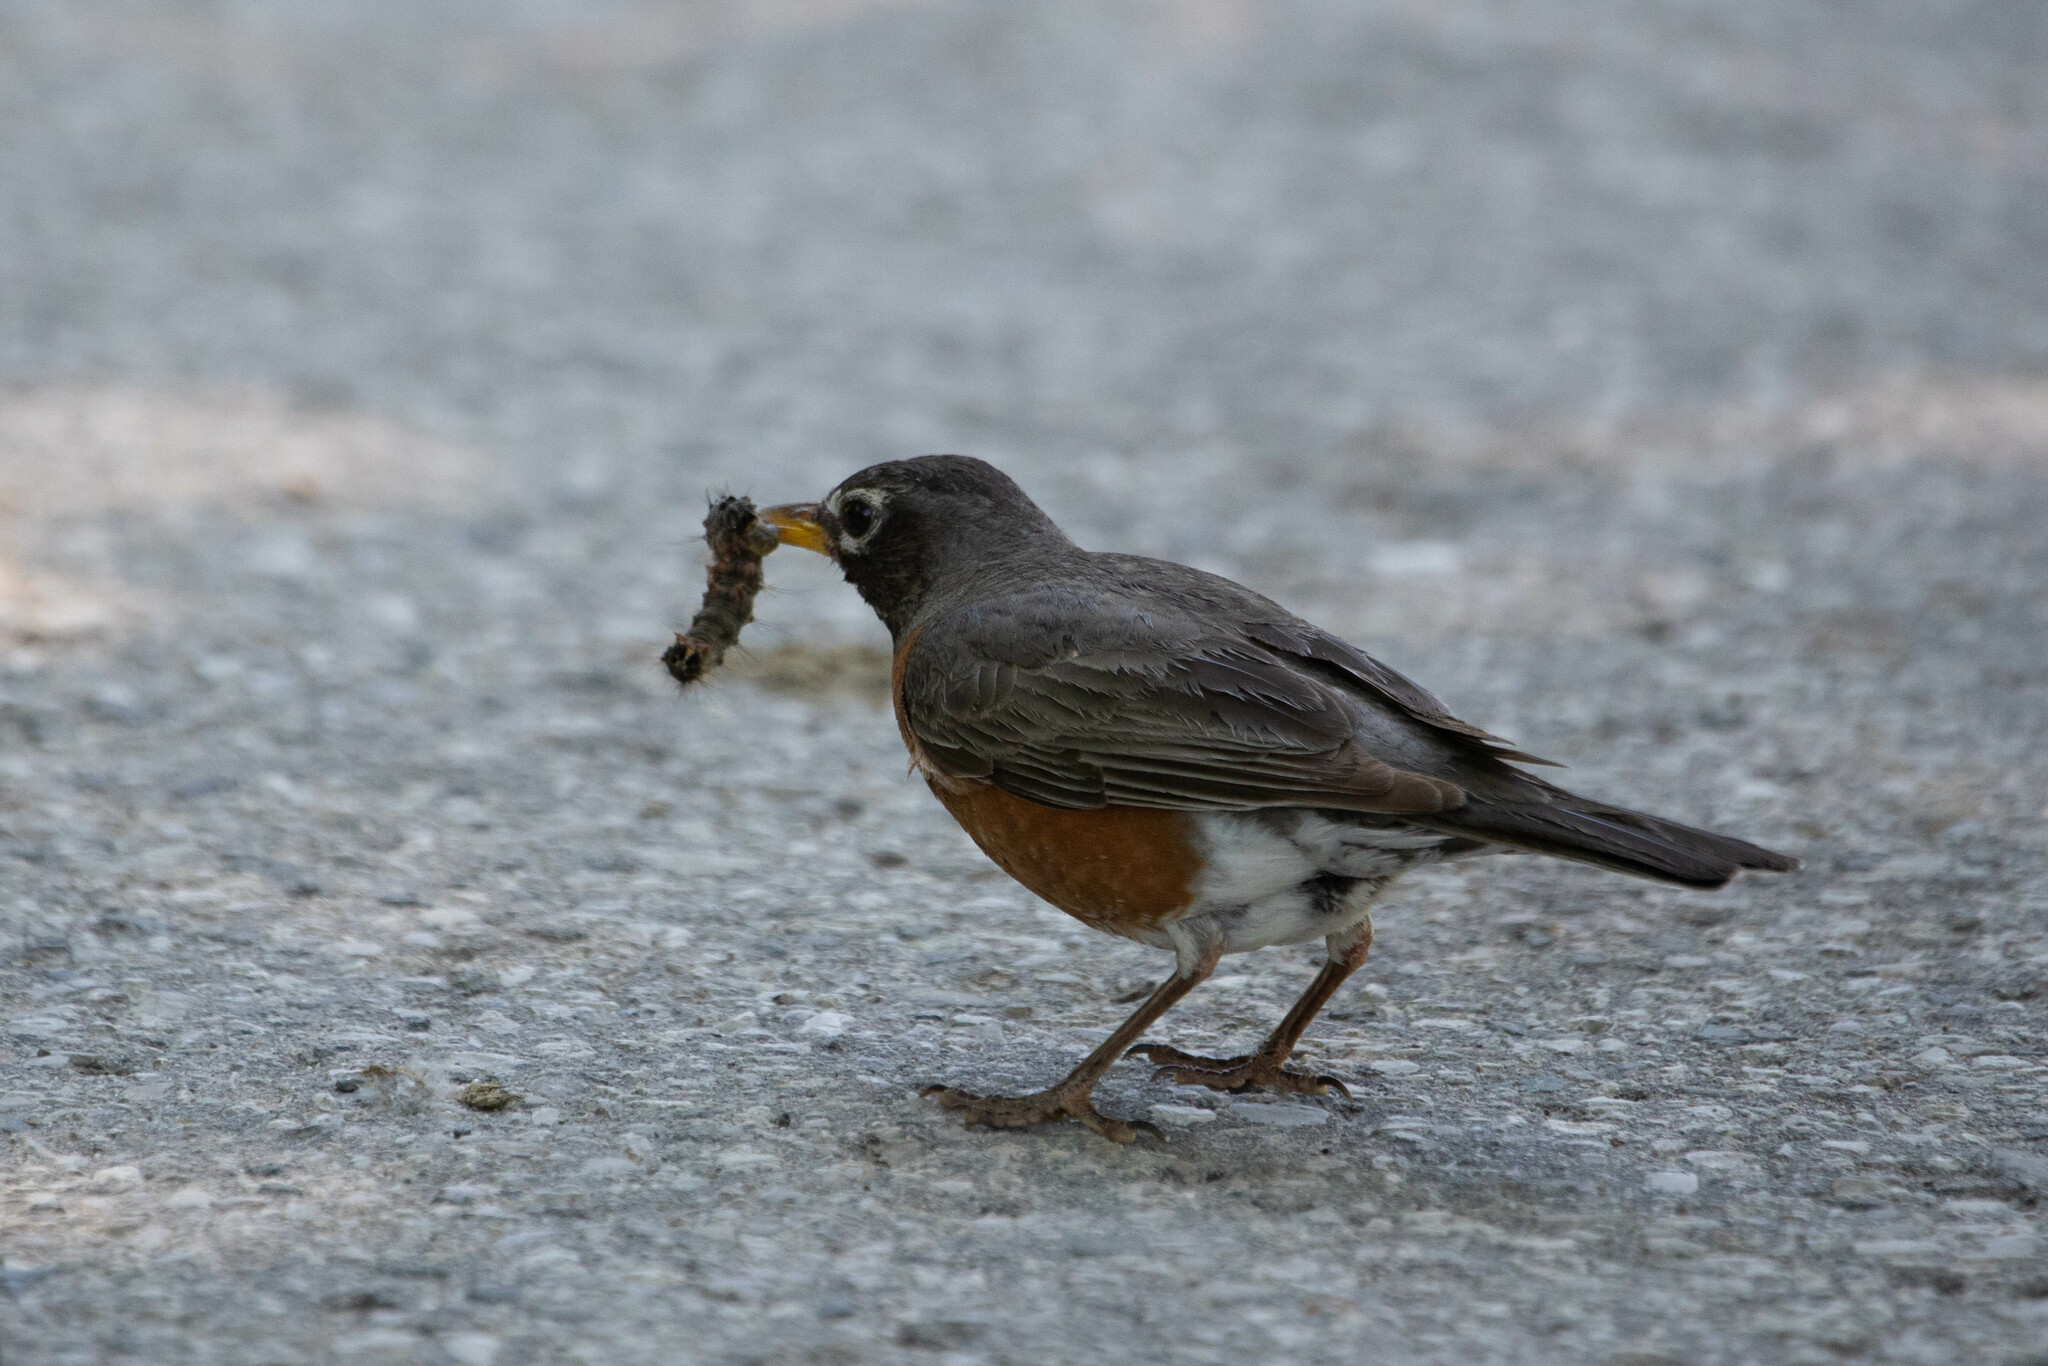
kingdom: Animalia
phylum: Arthropoda
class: Insecta
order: Lepidoptera
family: Erebidae
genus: Lymantria
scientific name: Lymantria dispar
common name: Gypsy moth
